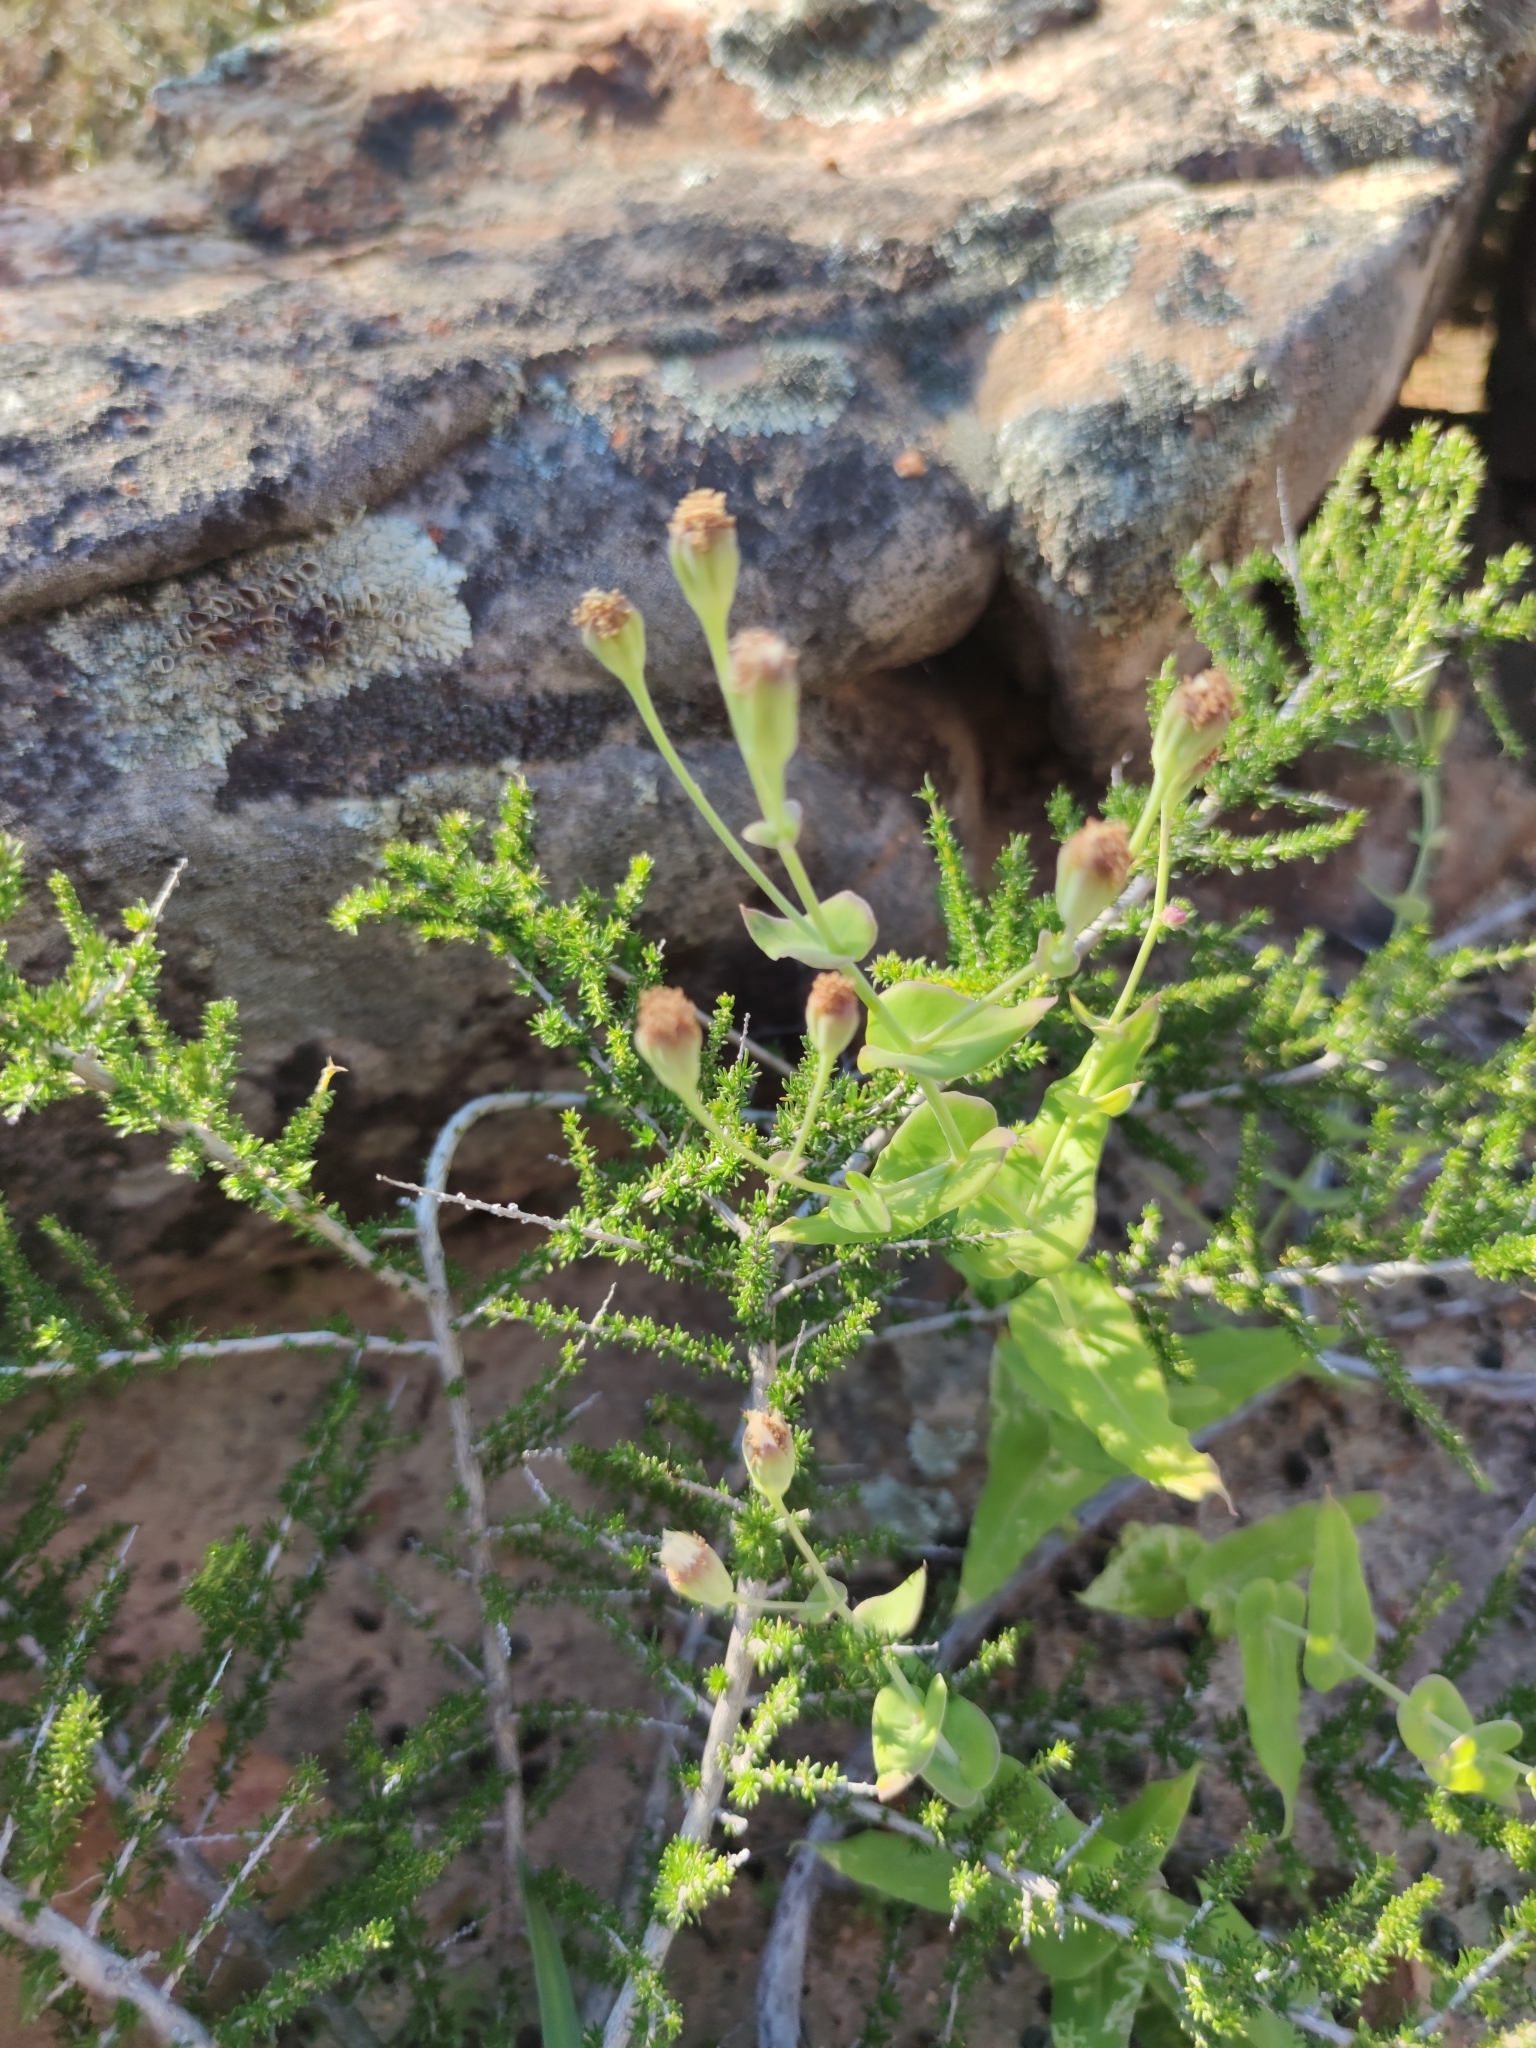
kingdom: Plantae
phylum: Tracheophyta
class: Magnoliopsida
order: Asterales
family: Asteraceae
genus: Othonna
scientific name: Othonna undulosa
